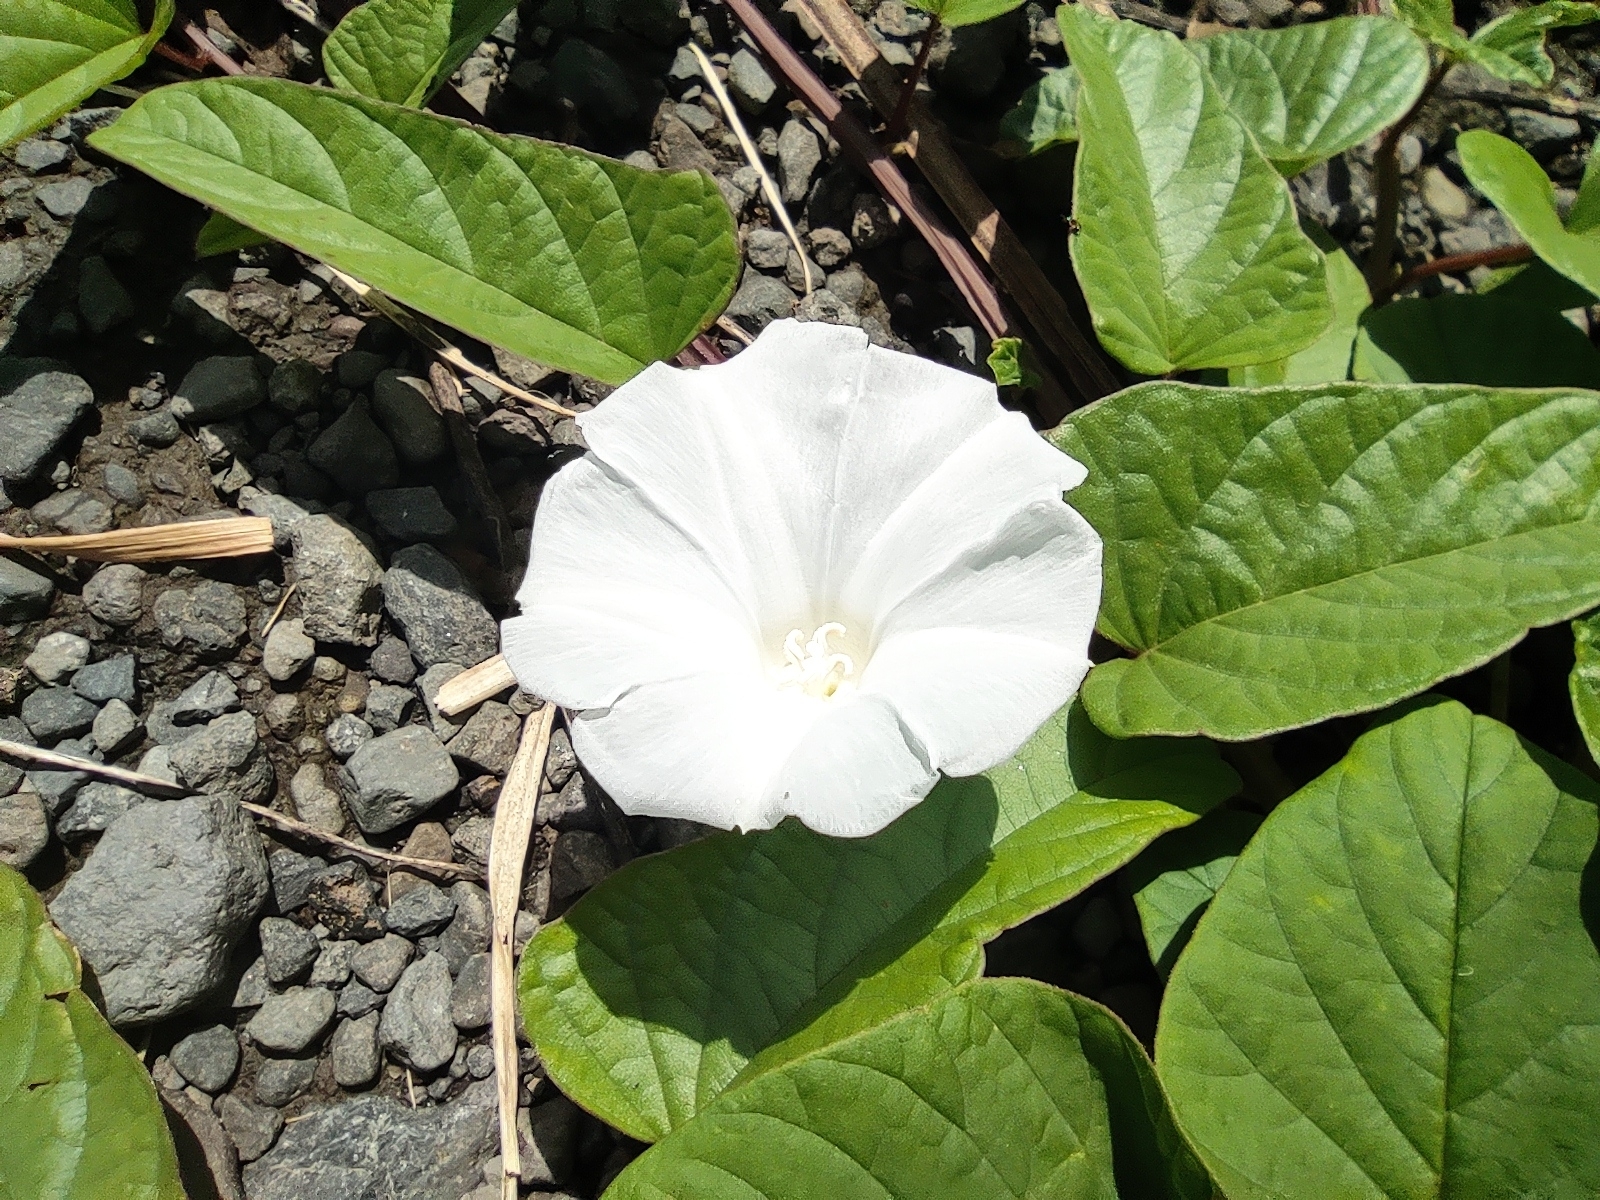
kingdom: Plantae
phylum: Tracheophyta
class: Magnoliopsida
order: Solanales
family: Convolvulaceae
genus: Operculina
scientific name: Operculina turpethum
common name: Transparent wood-rose
